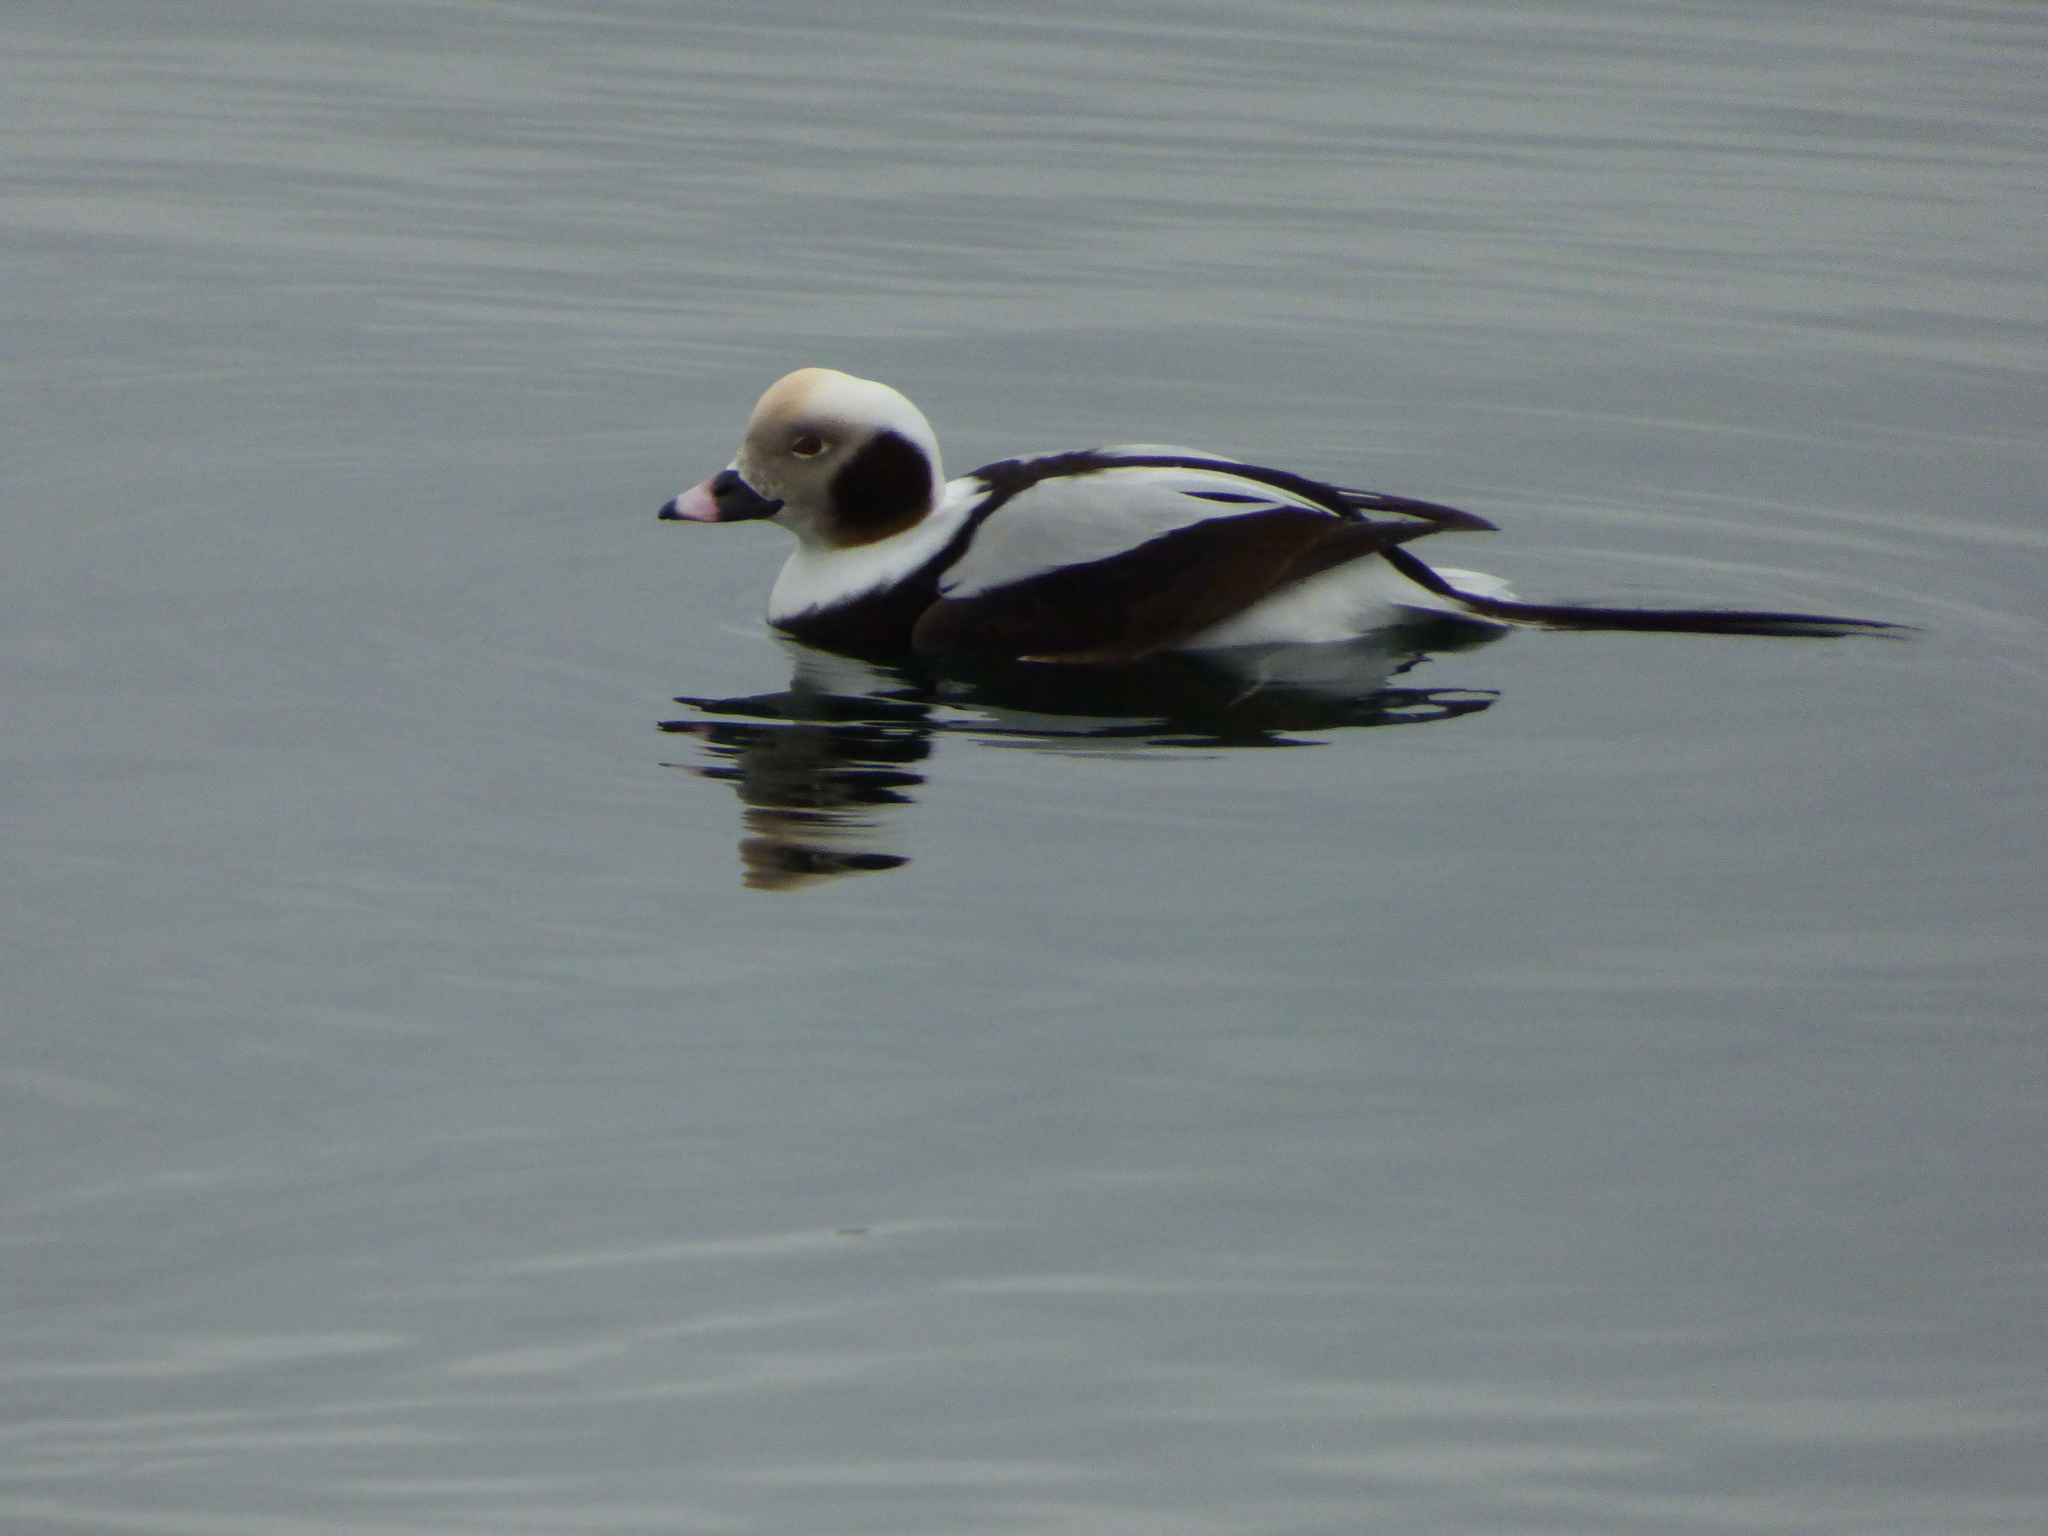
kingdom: Animalia
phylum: Chordata
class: Aves
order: Anseriformes
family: Anatidae
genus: Clangula
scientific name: Clangula hyemalis
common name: Long-tailed duck
